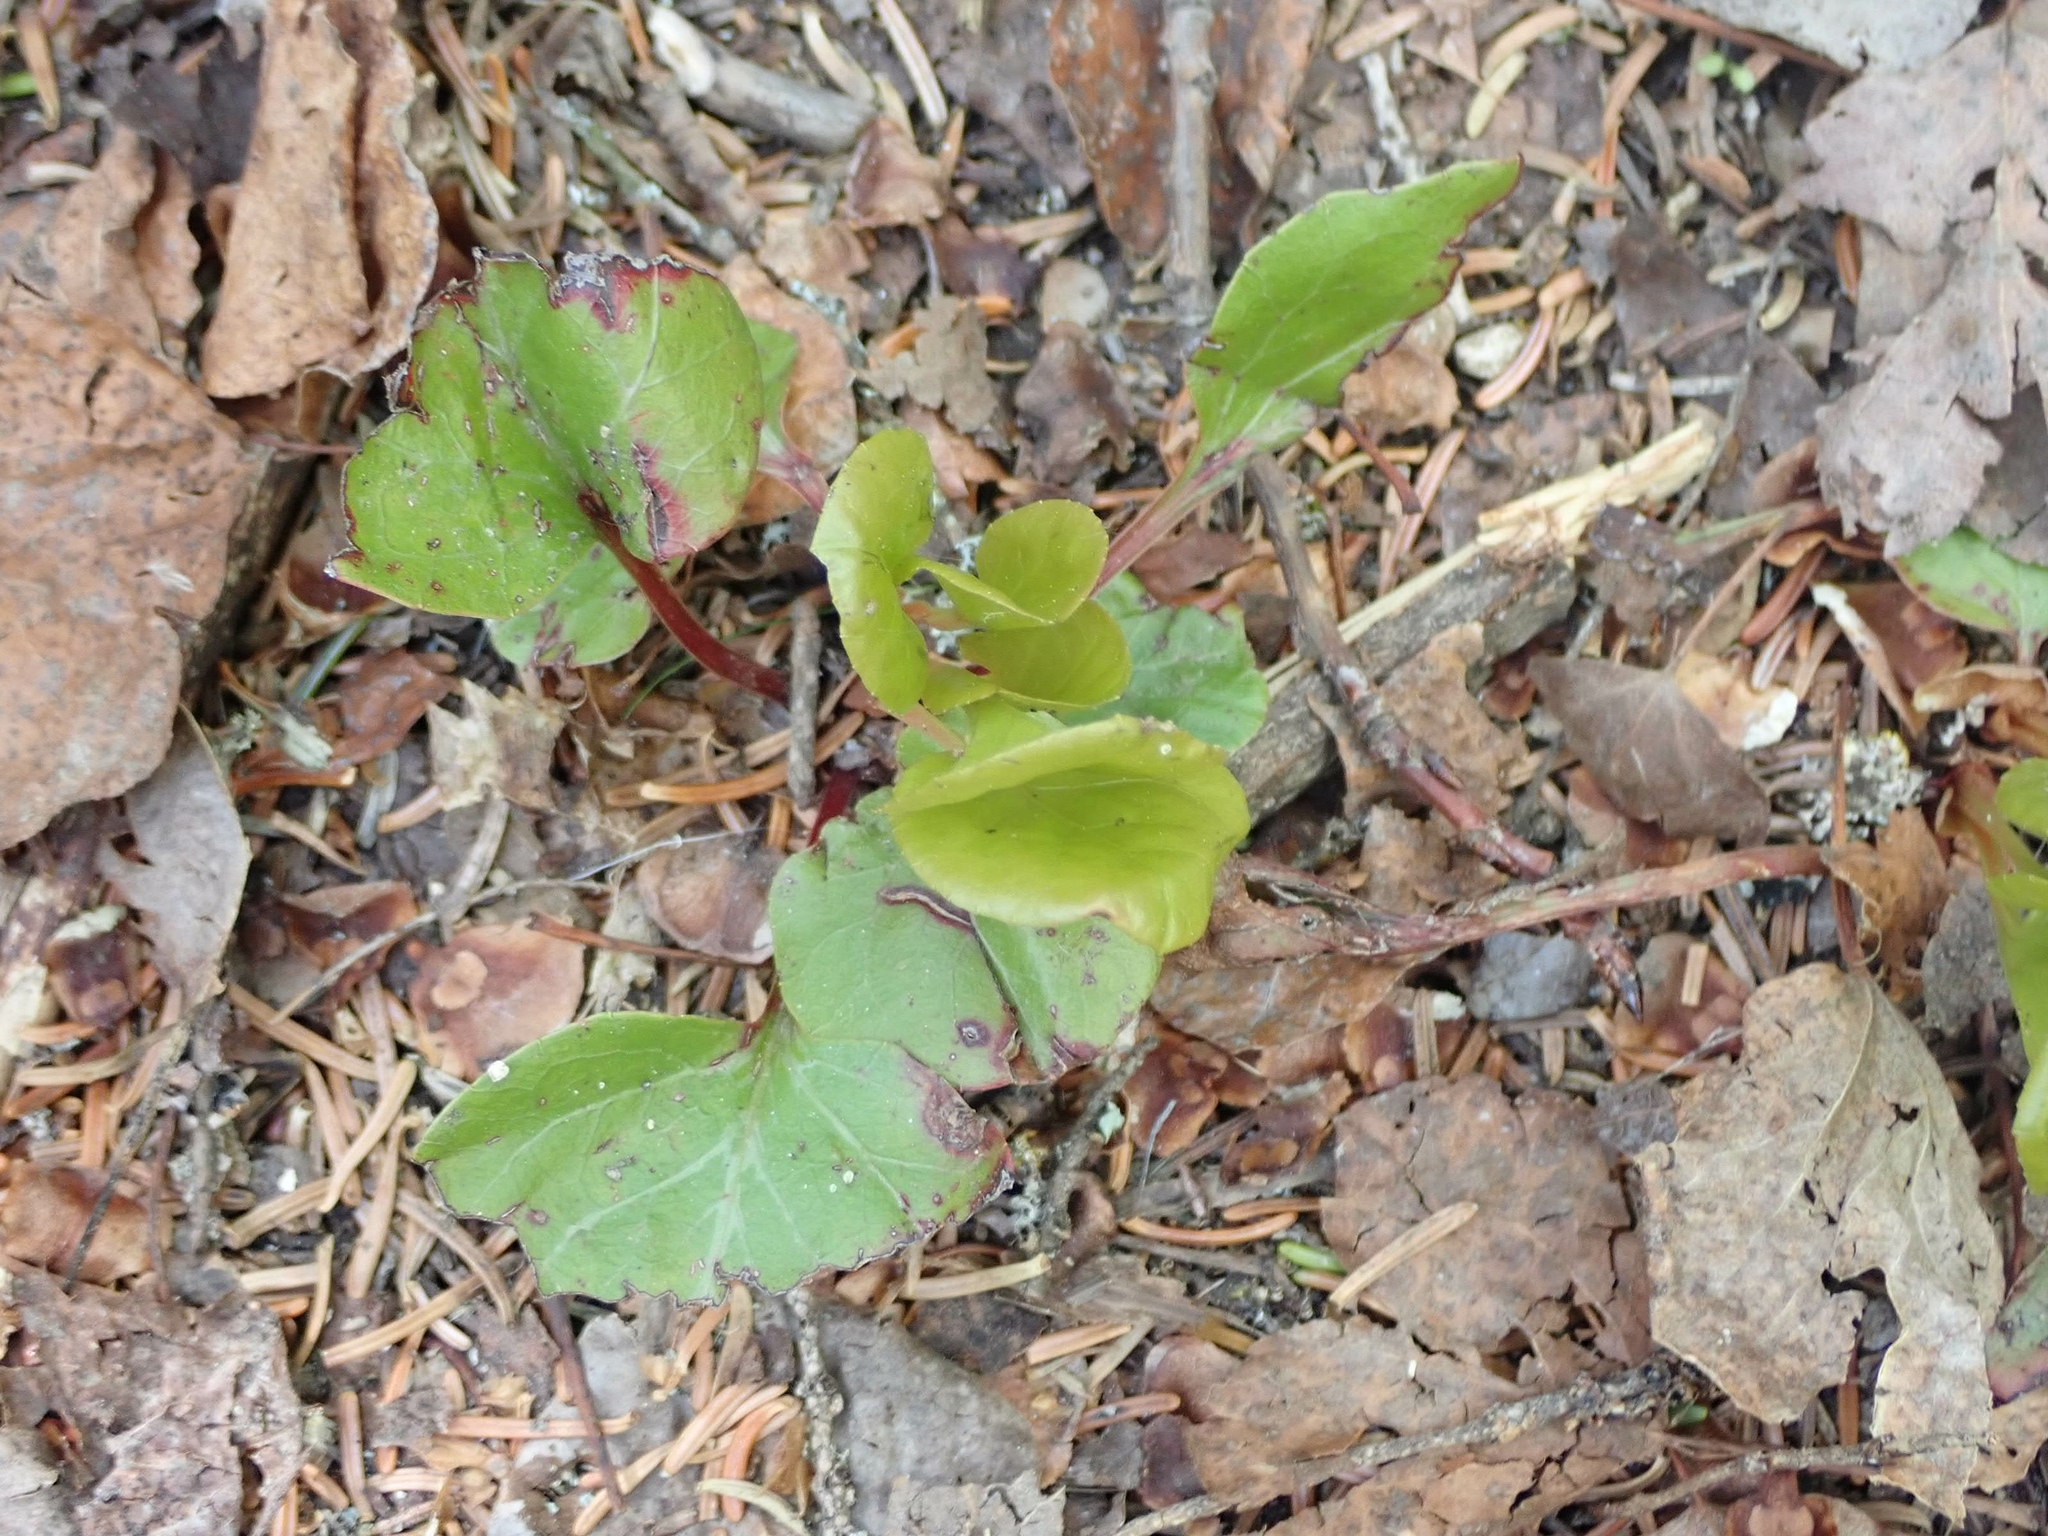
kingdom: Plantae
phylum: Tracheophyta
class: Magnoliopsida
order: Ericales
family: Ericaceae
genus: Pyrola
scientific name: Pyrola asarifolia
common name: Bog wintergreen
